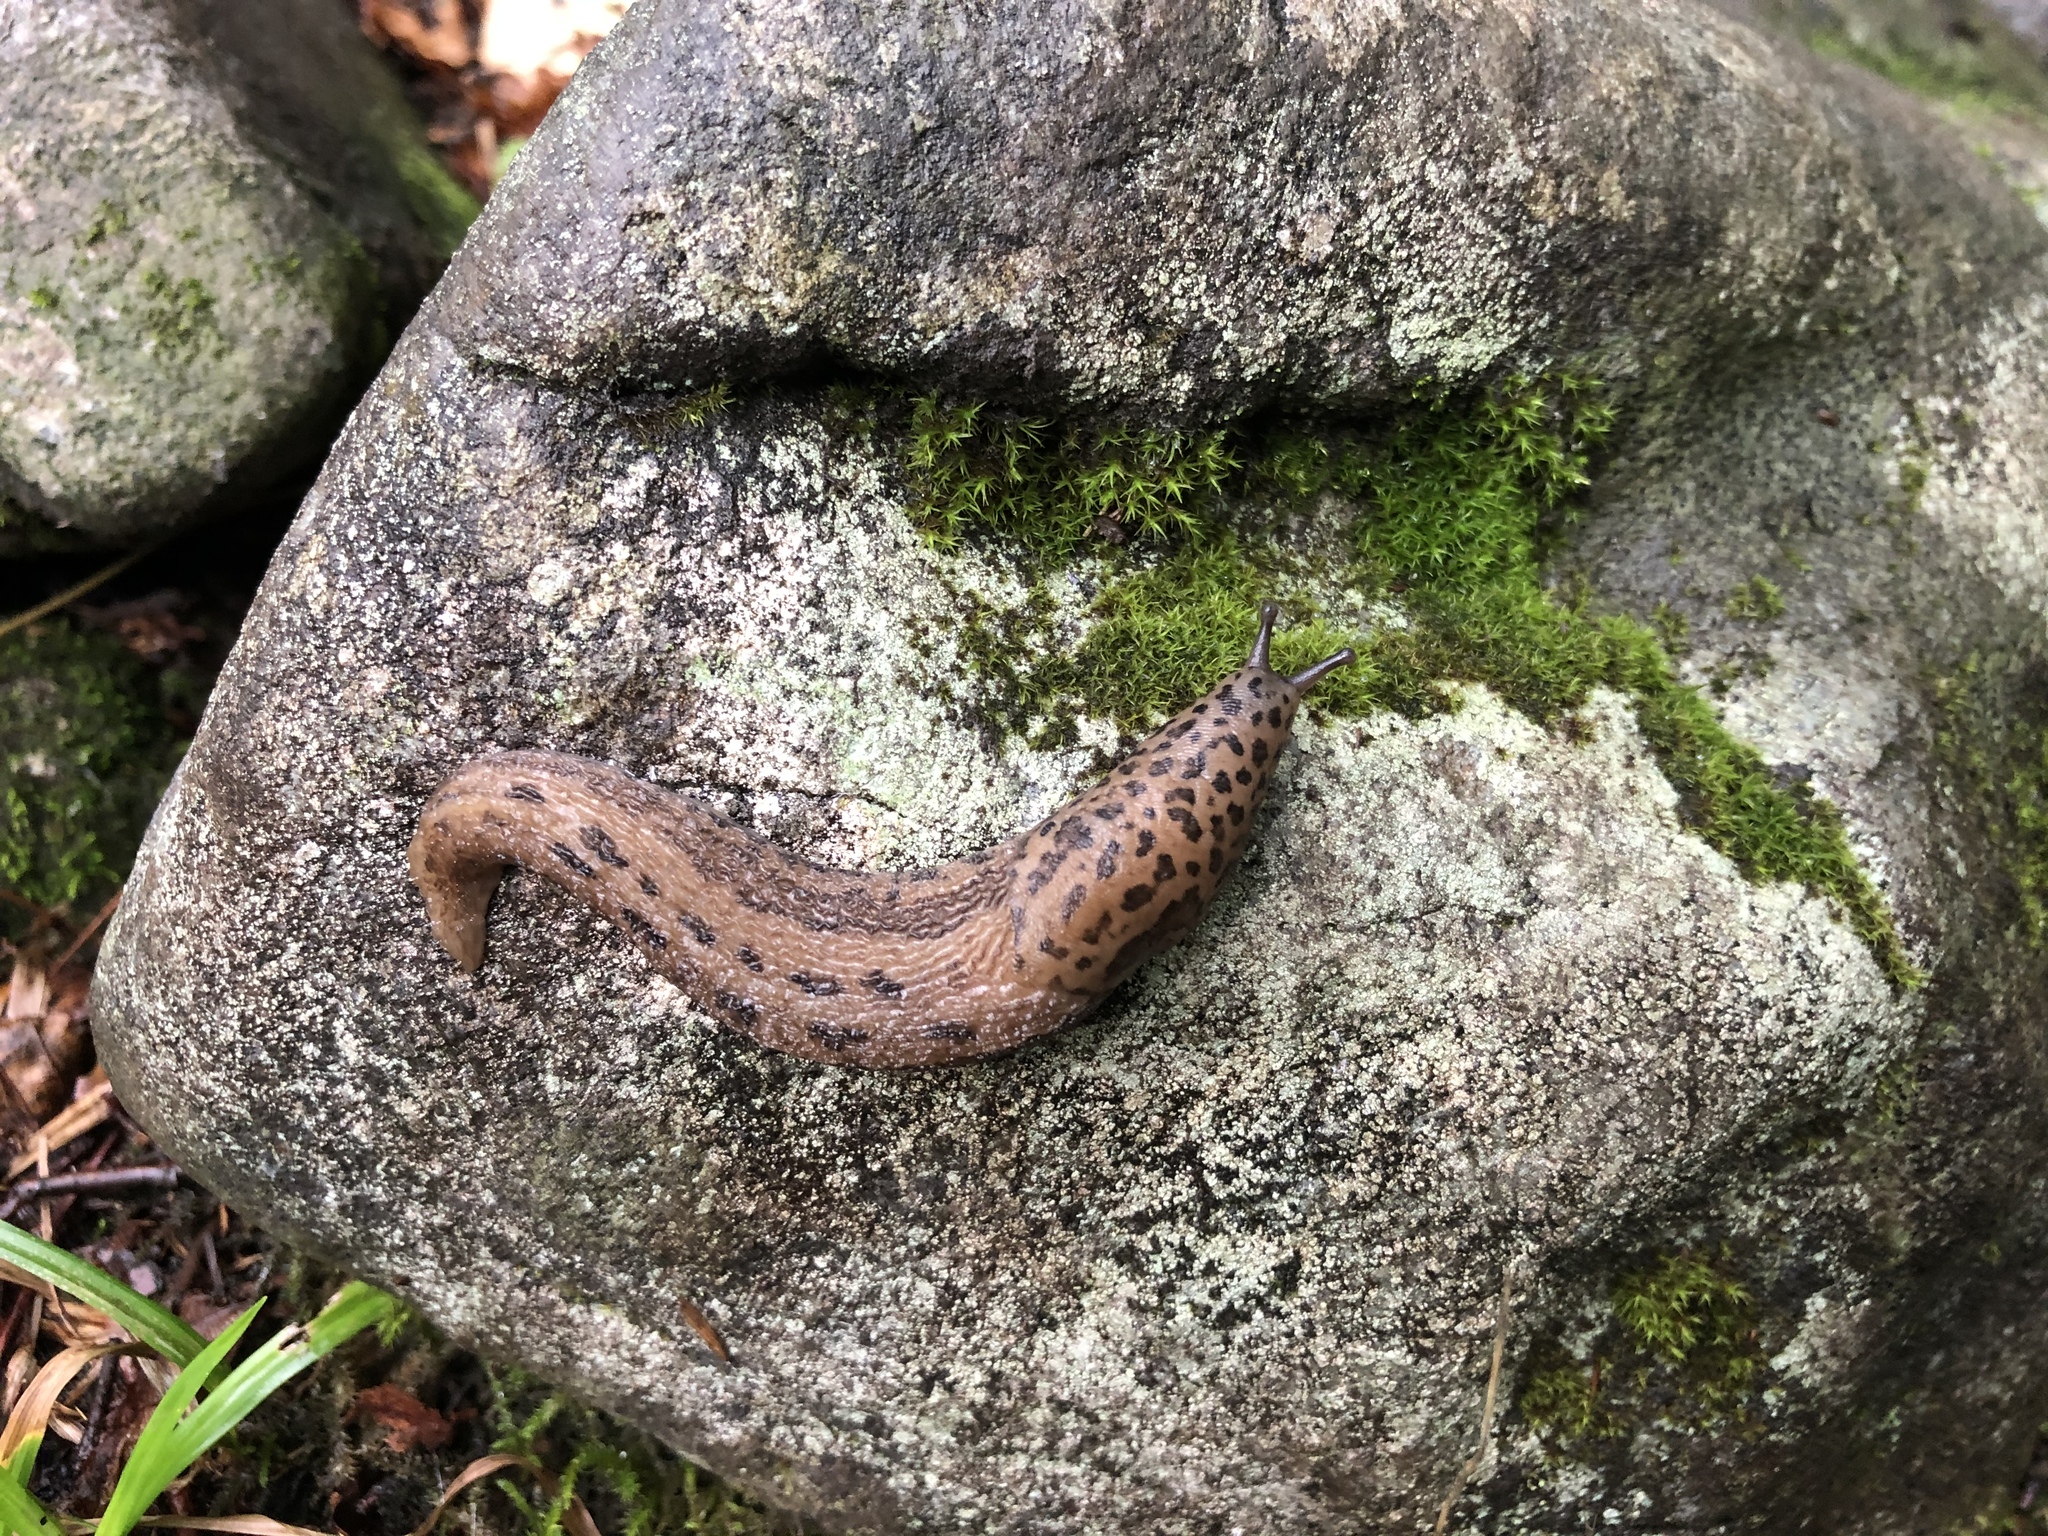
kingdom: Animalia
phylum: Mollusca
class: Gastropoda
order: Stylommatophora
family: Limacidae
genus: Limax
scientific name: Limax maximus
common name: Great grey slug
